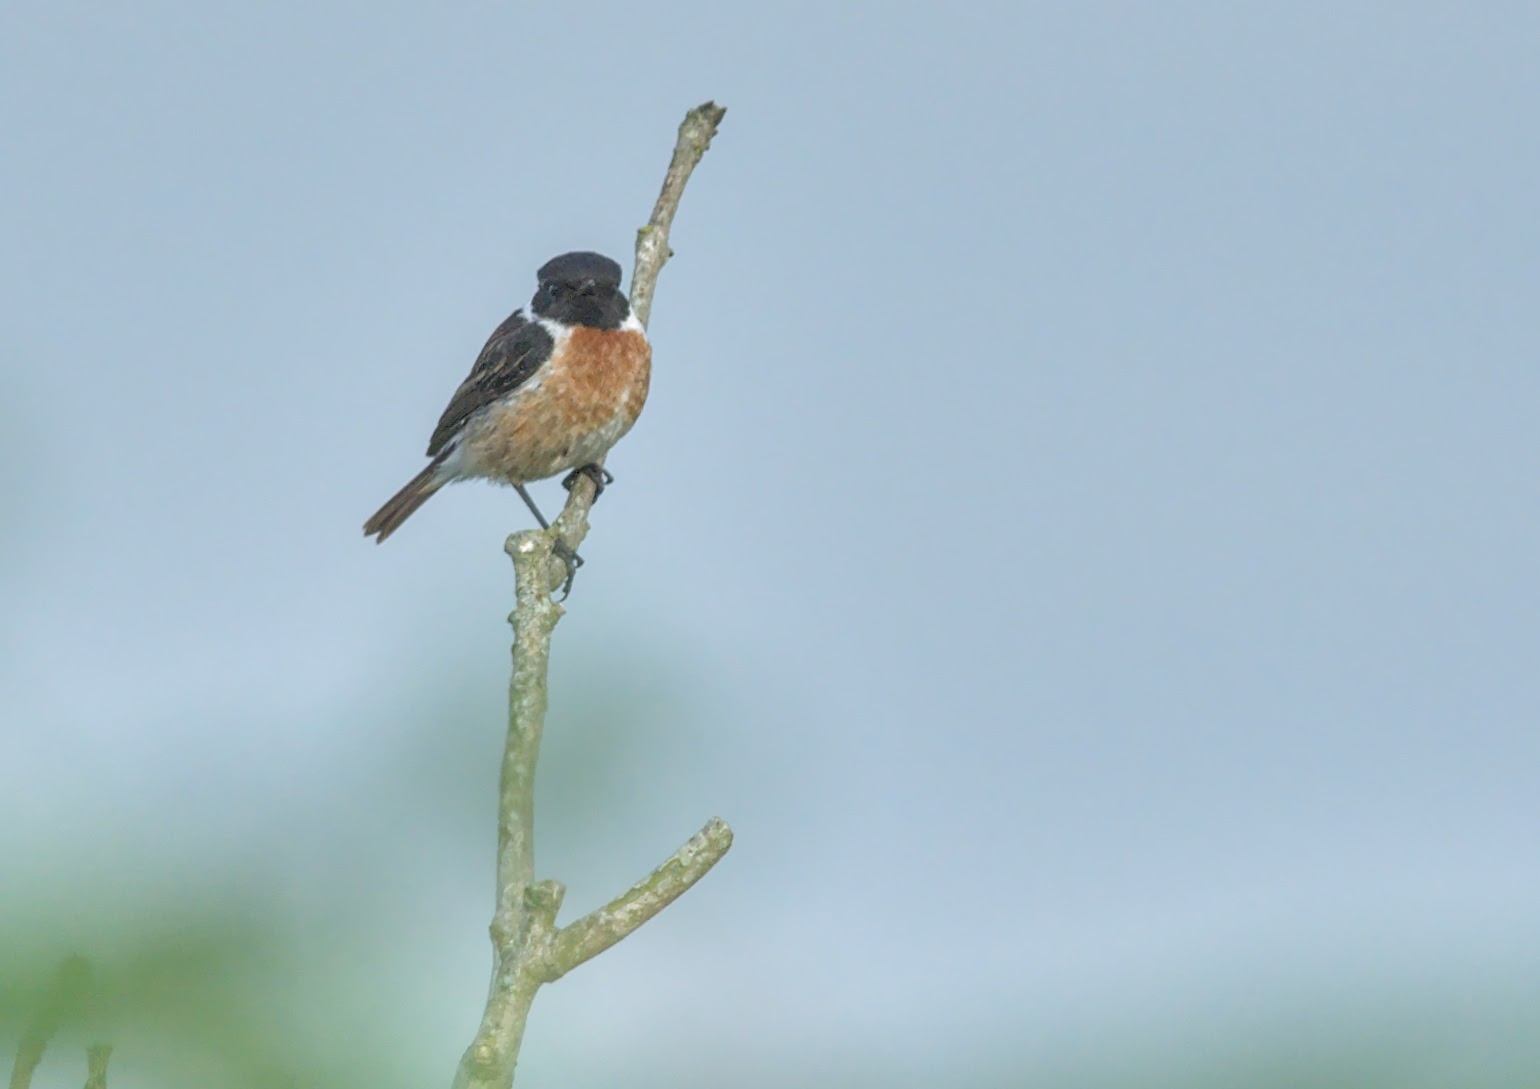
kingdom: Animalia
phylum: Chordata
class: Aves
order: Passeriformes
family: Muscicapidae
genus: Saxicola
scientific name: Saxicola rubicola
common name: European stonechat
